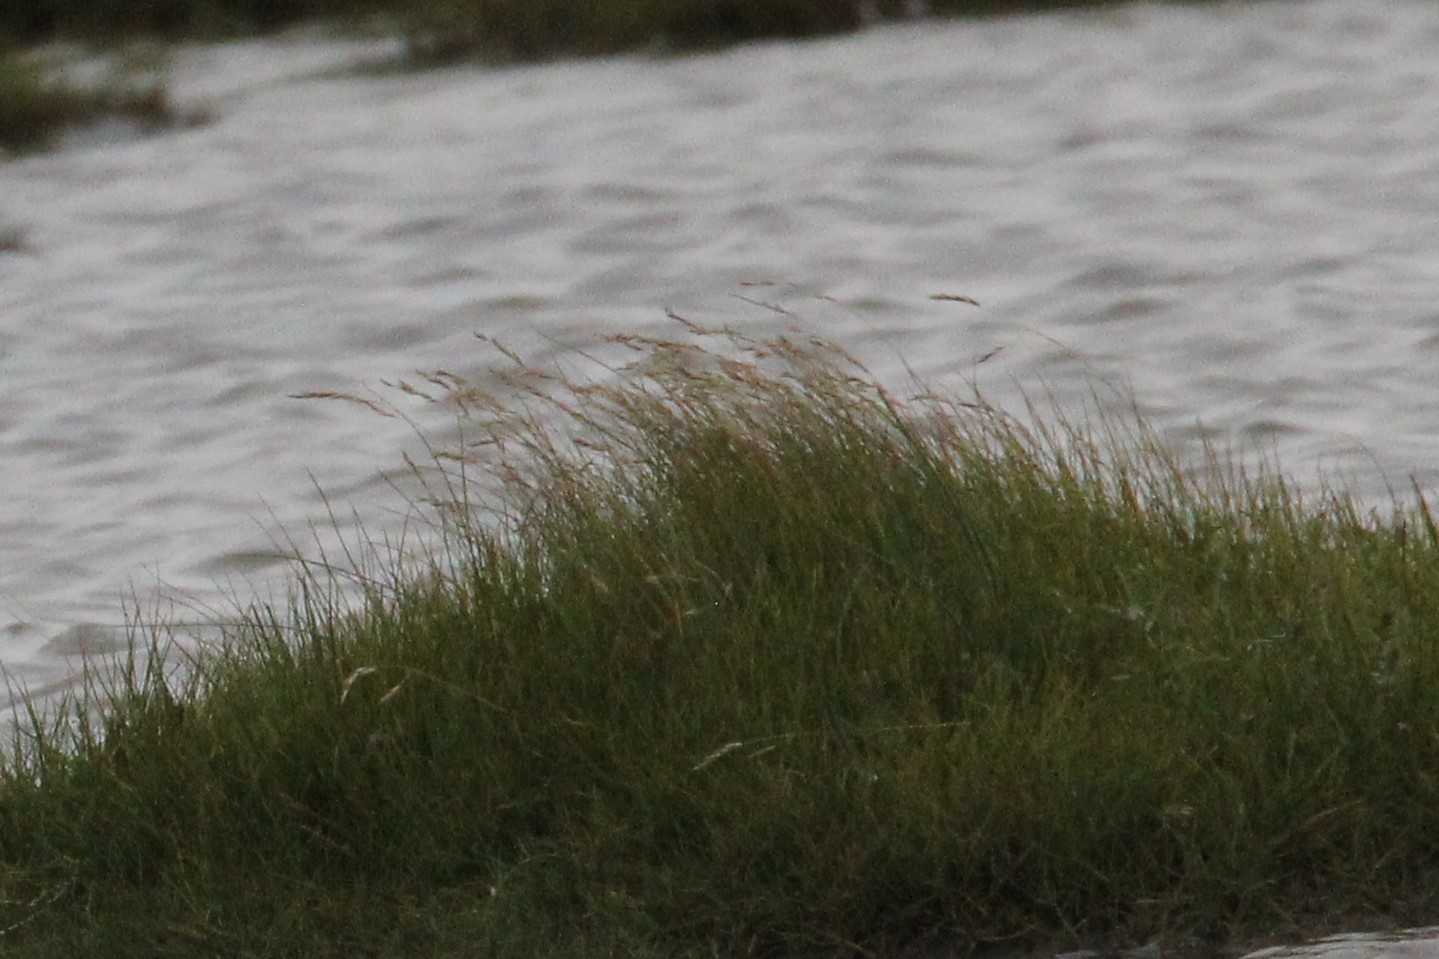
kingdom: Plantae
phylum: Tracheophyta
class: Liliopsida
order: Poales
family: Poaceae
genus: Festuca
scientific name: Festuca rubra
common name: Red fescue
